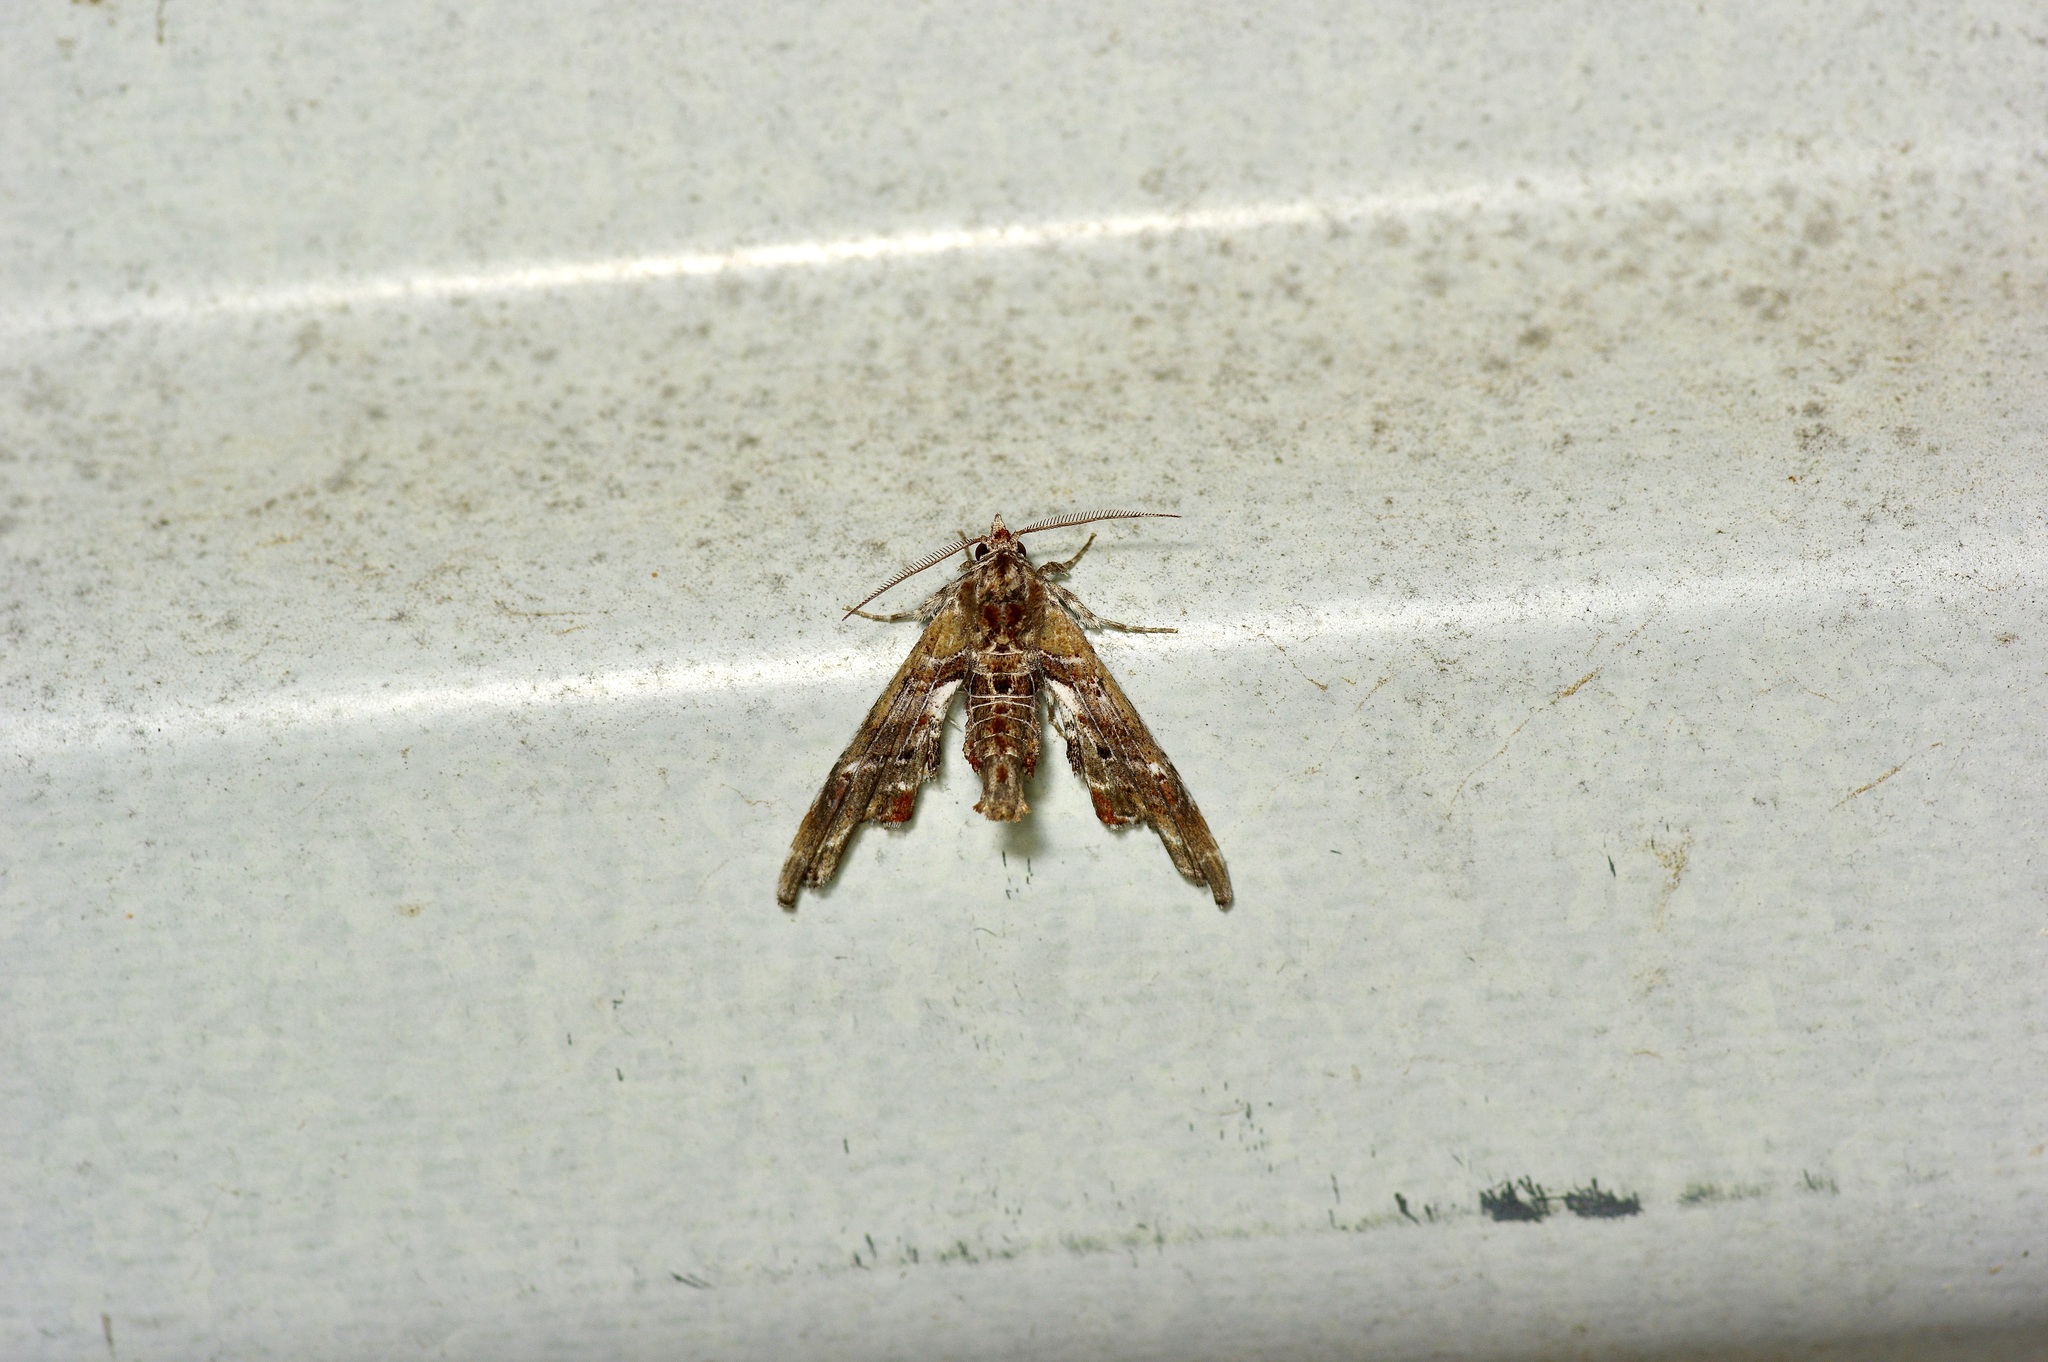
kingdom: Animalia
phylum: Arthropoda
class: Insecta
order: Lepidoptera
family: Euteliidae
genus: Marathyssa
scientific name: Marathyssa basalis
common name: Light marathyssa moth
